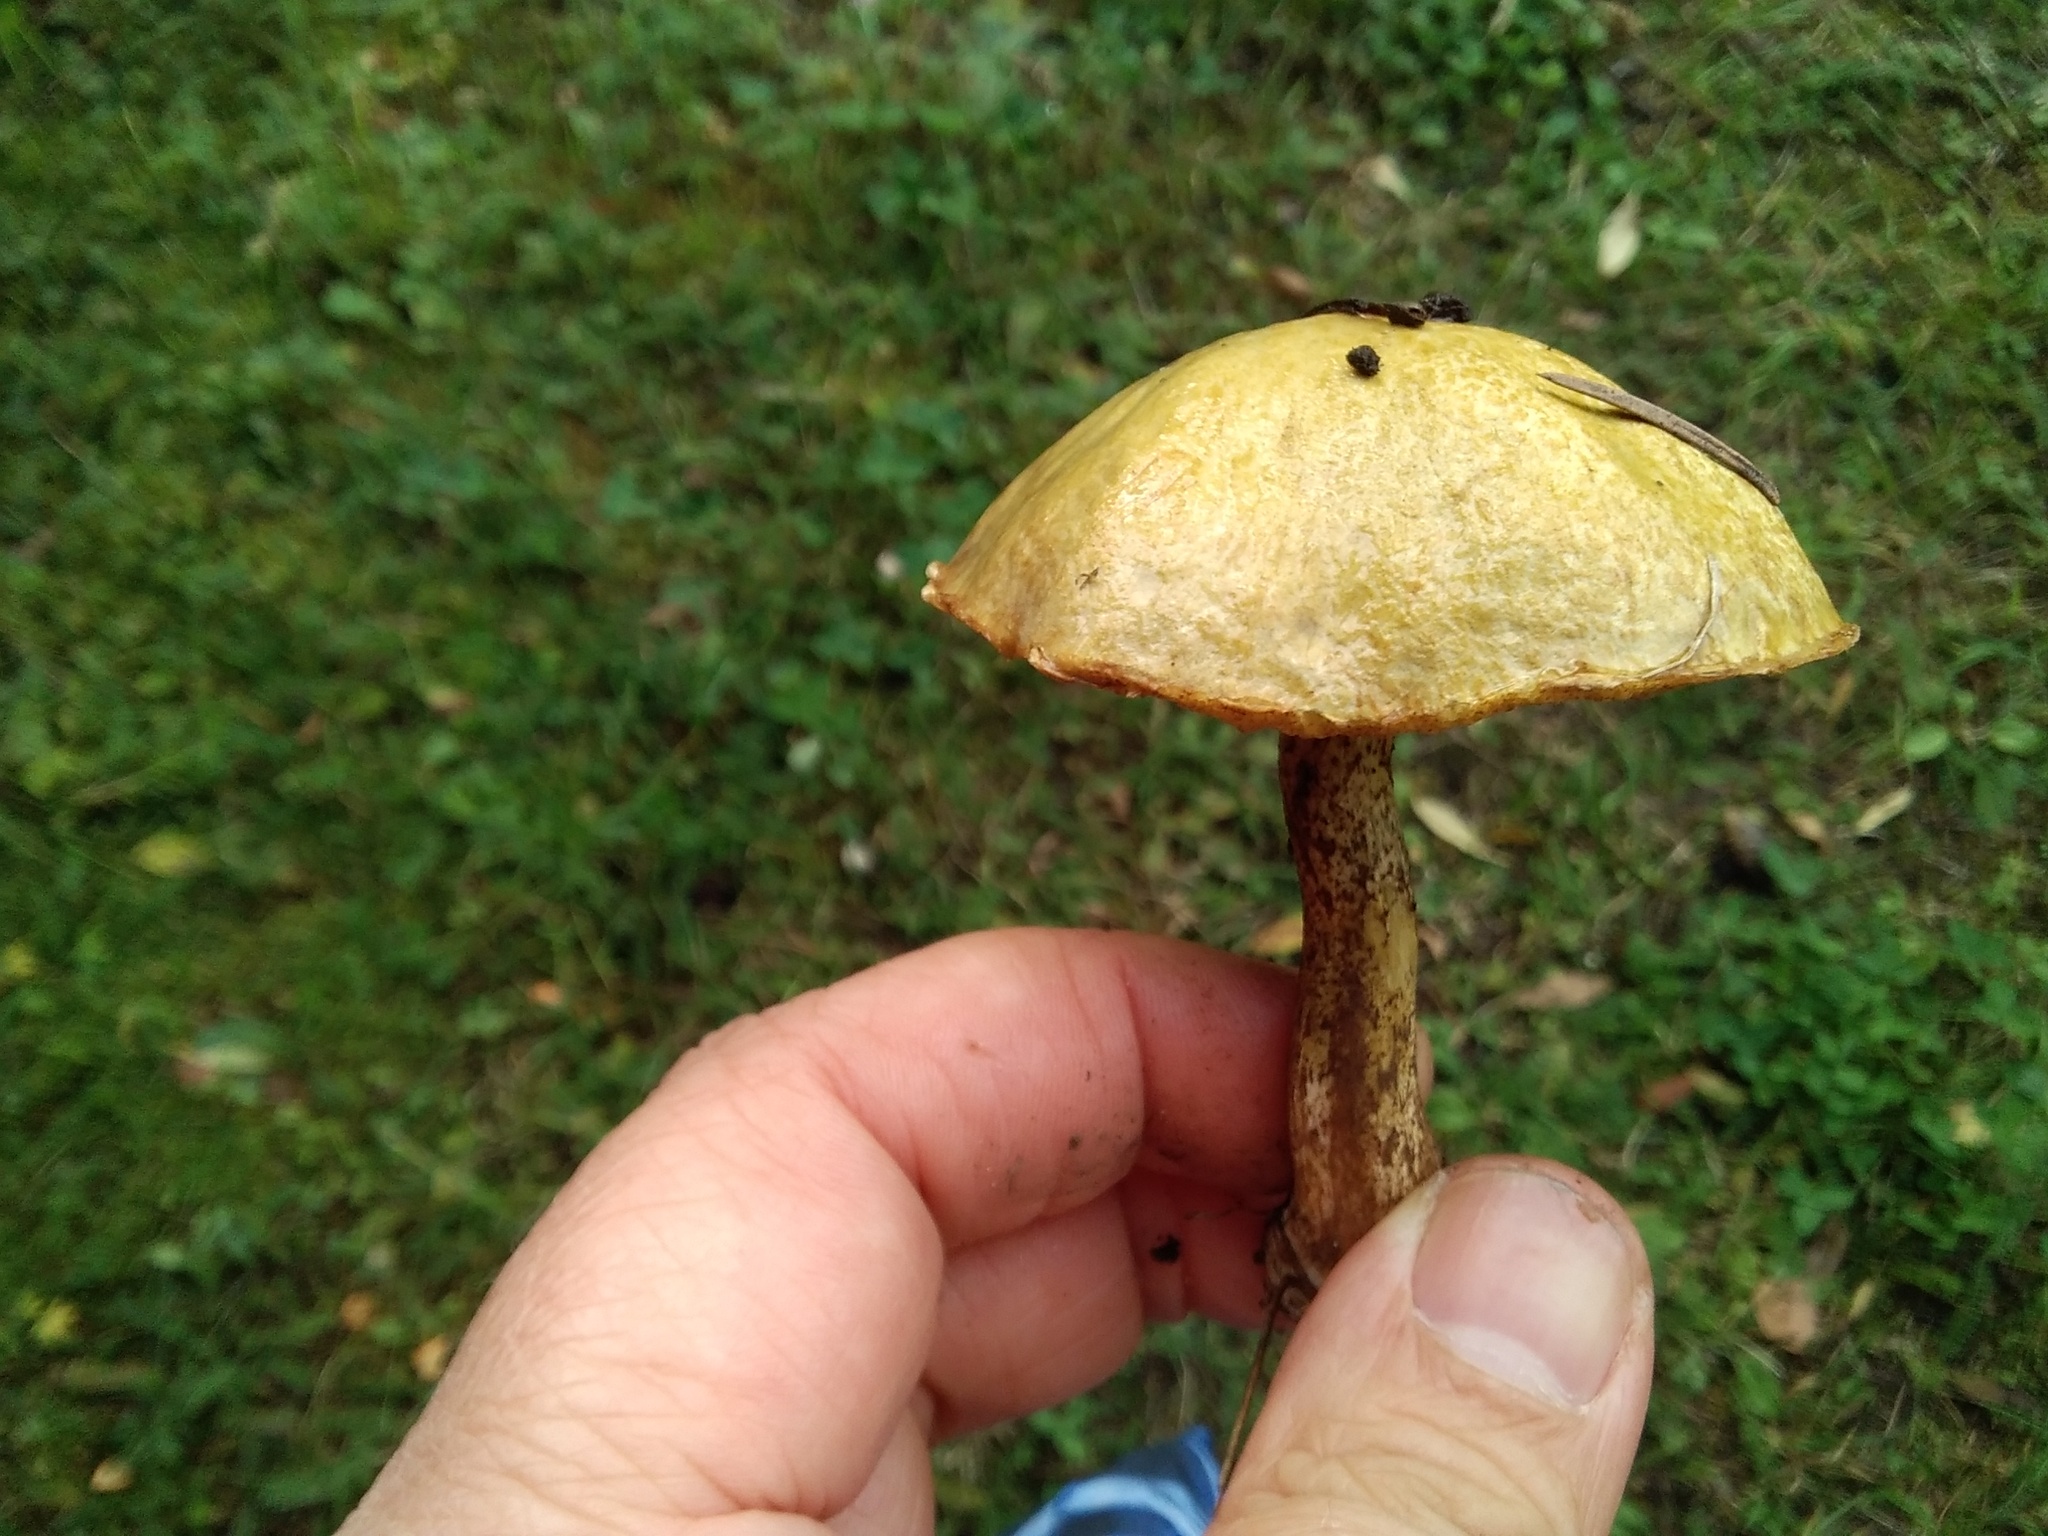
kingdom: Fungi
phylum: Basidiomycota
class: Agaricomycetes
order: Boletales
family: Suillaceae
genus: Suillus
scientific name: Suillus americanus
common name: Chicken fat mushroom
